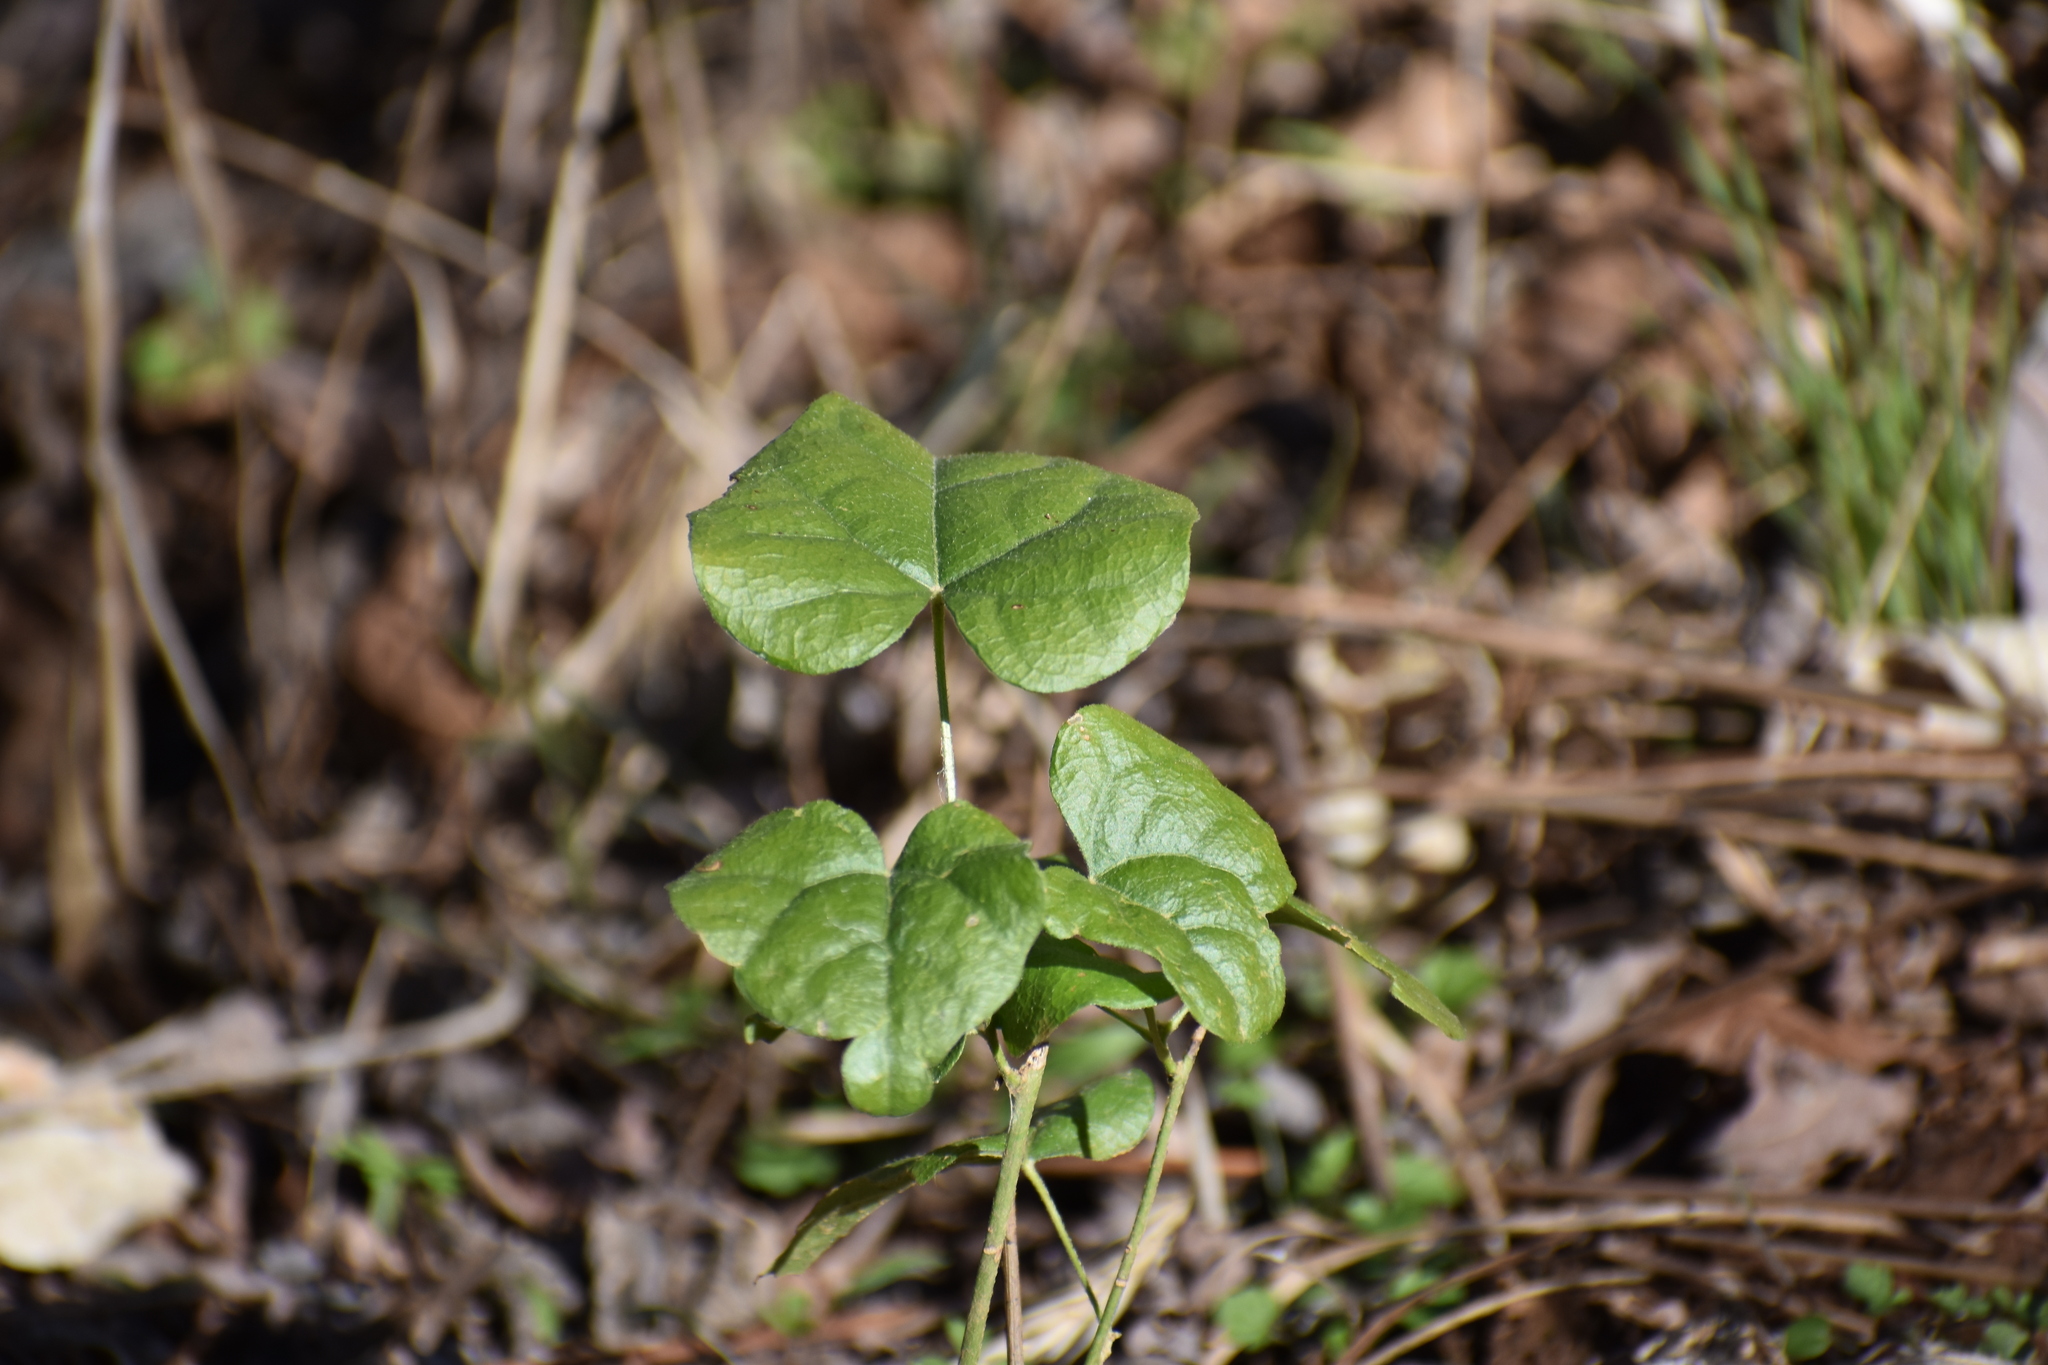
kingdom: Plantae
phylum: Tracheophyta
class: Magnoliopsida
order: Ranunculales
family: Menispermaceae
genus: Cocculus
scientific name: Cocculus carolinus
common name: Carolina moonseed
